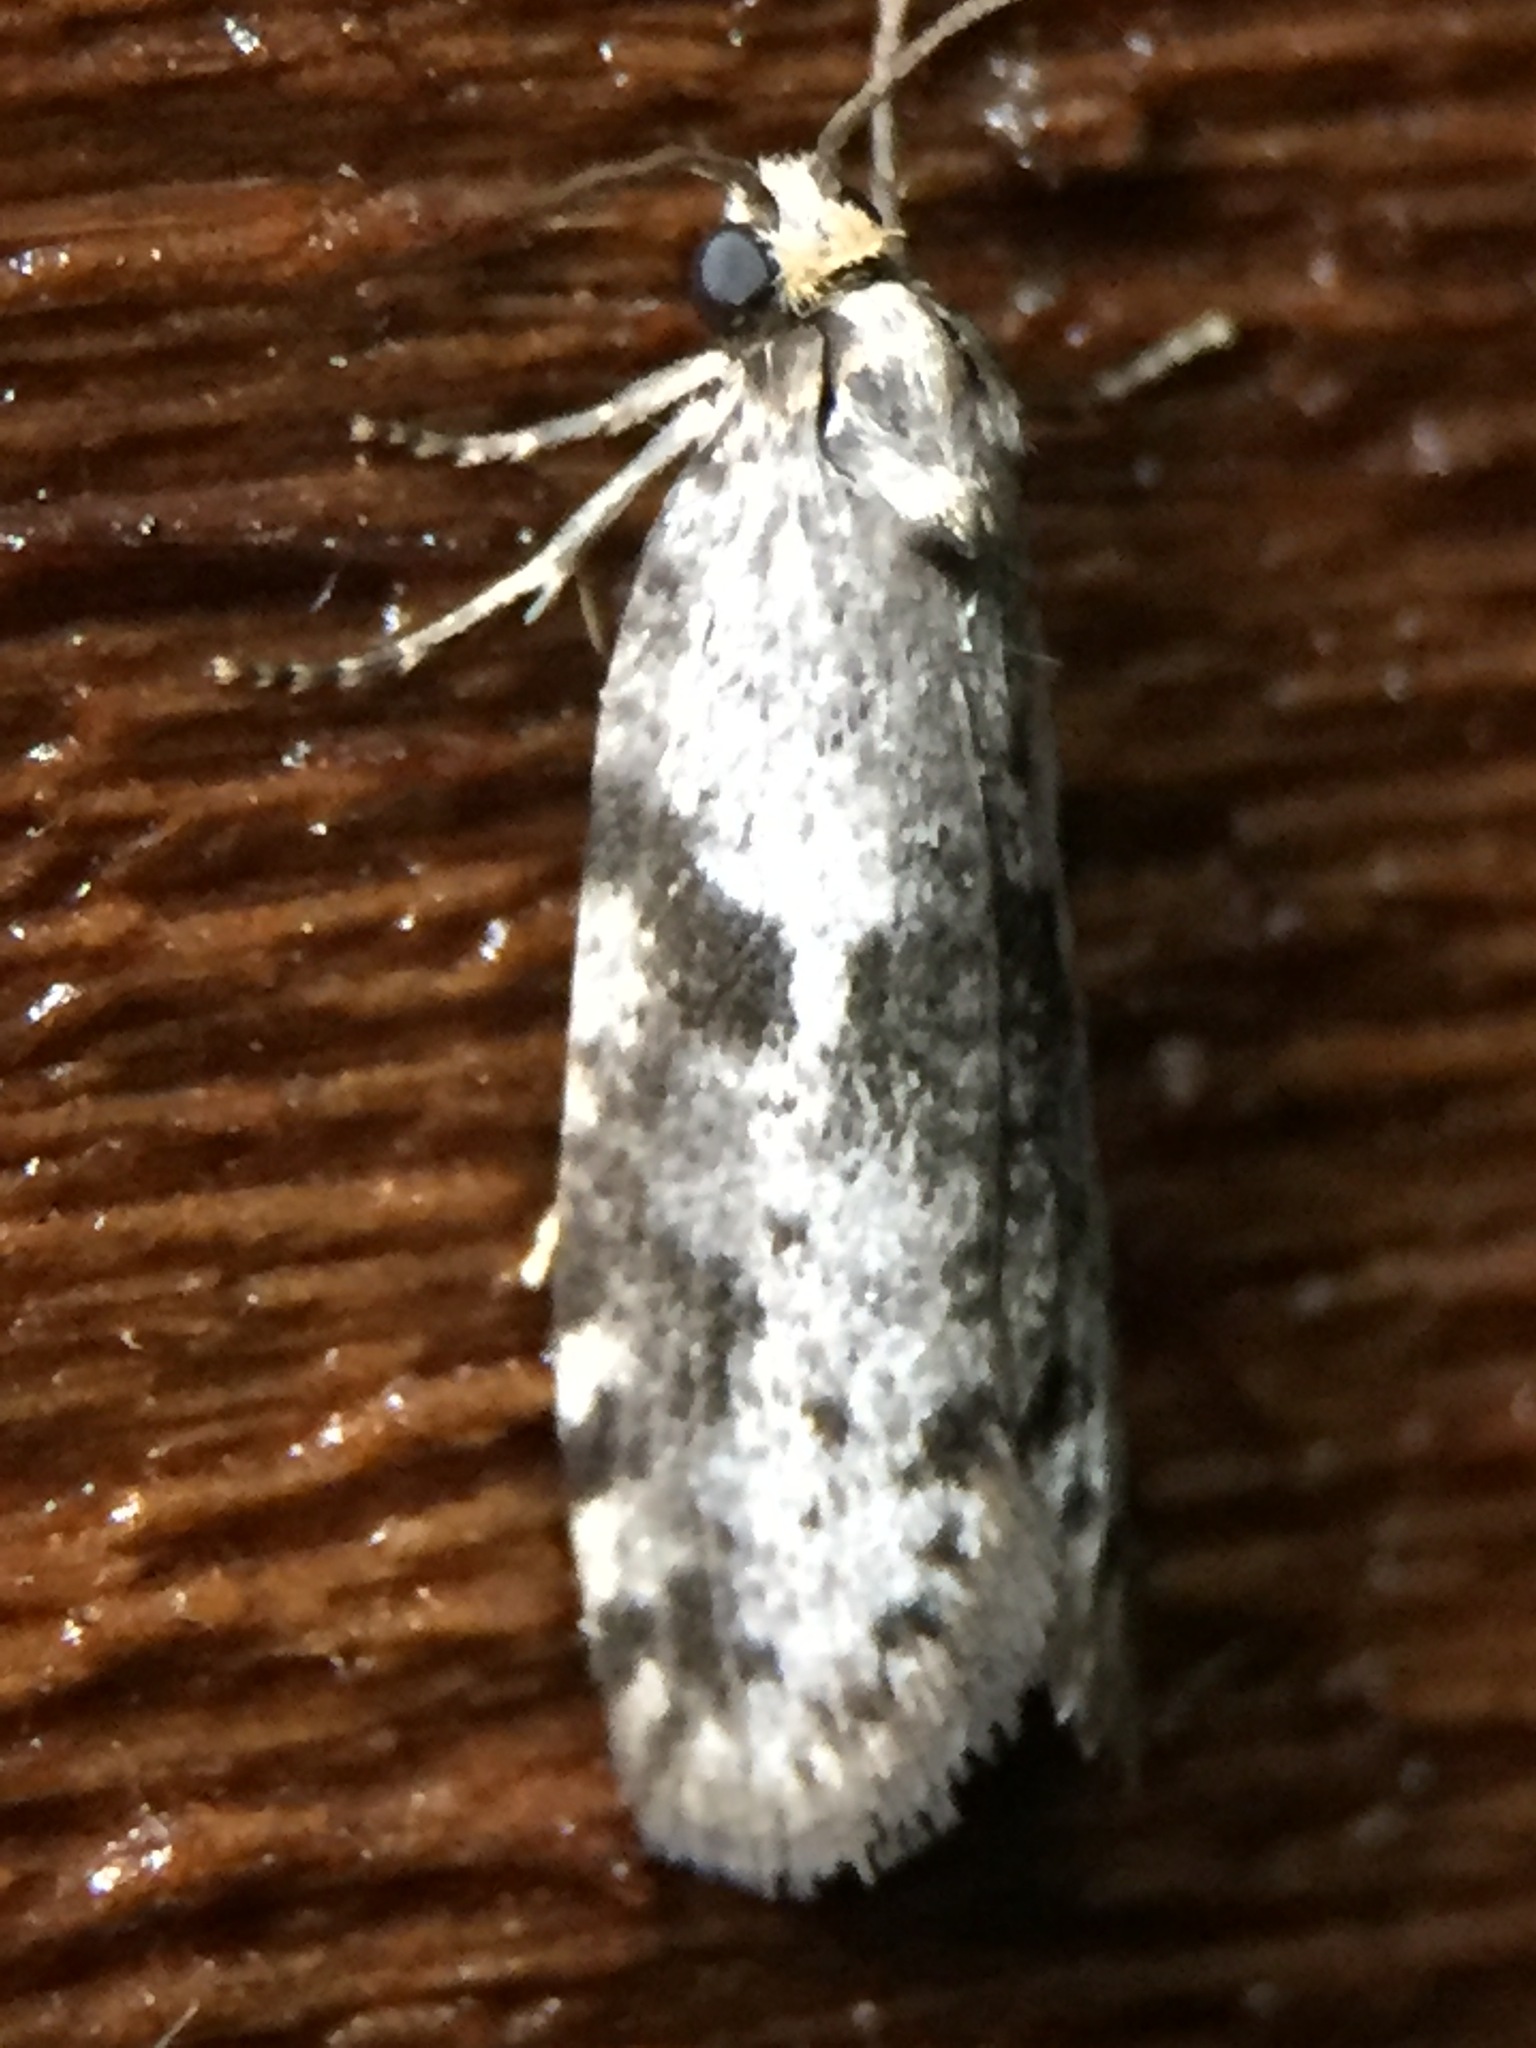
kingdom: Animalia
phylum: Arthropoda
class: Insecta
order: Lepidoptera
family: Psychidae
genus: Lepidoscia
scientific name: Lepidoscia protorna
